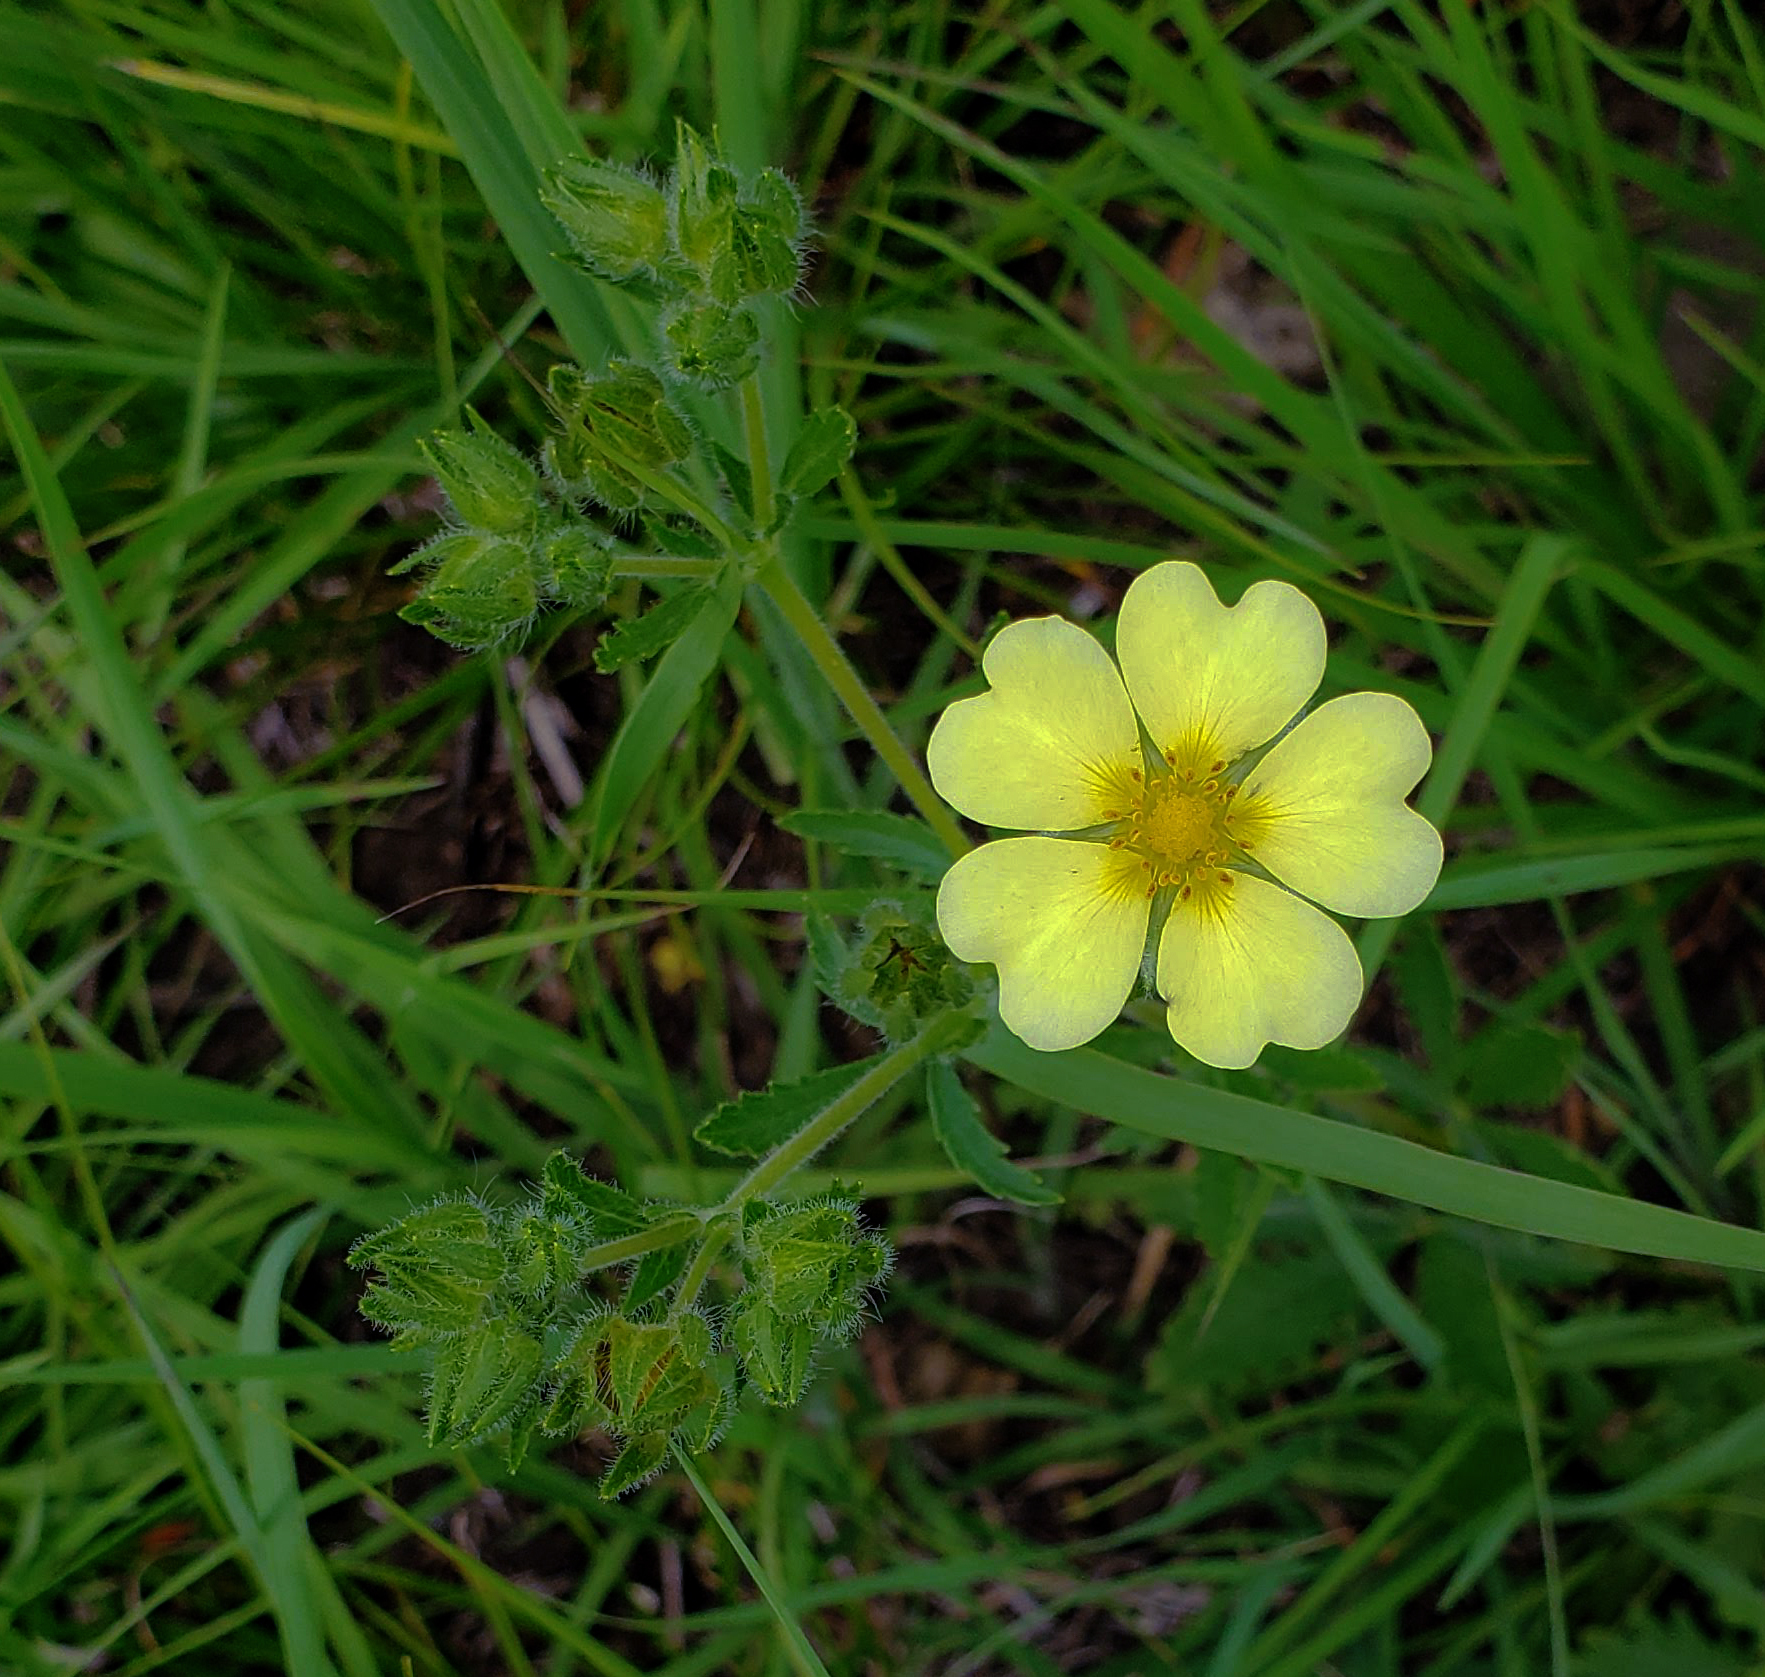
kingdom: Plantae
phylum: Tracheophyta
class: Magnoliopsida
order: Rosales
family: Rosaceae
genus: Potentilla
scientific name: Potentilla recta
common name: Sulphur cinquefoil
